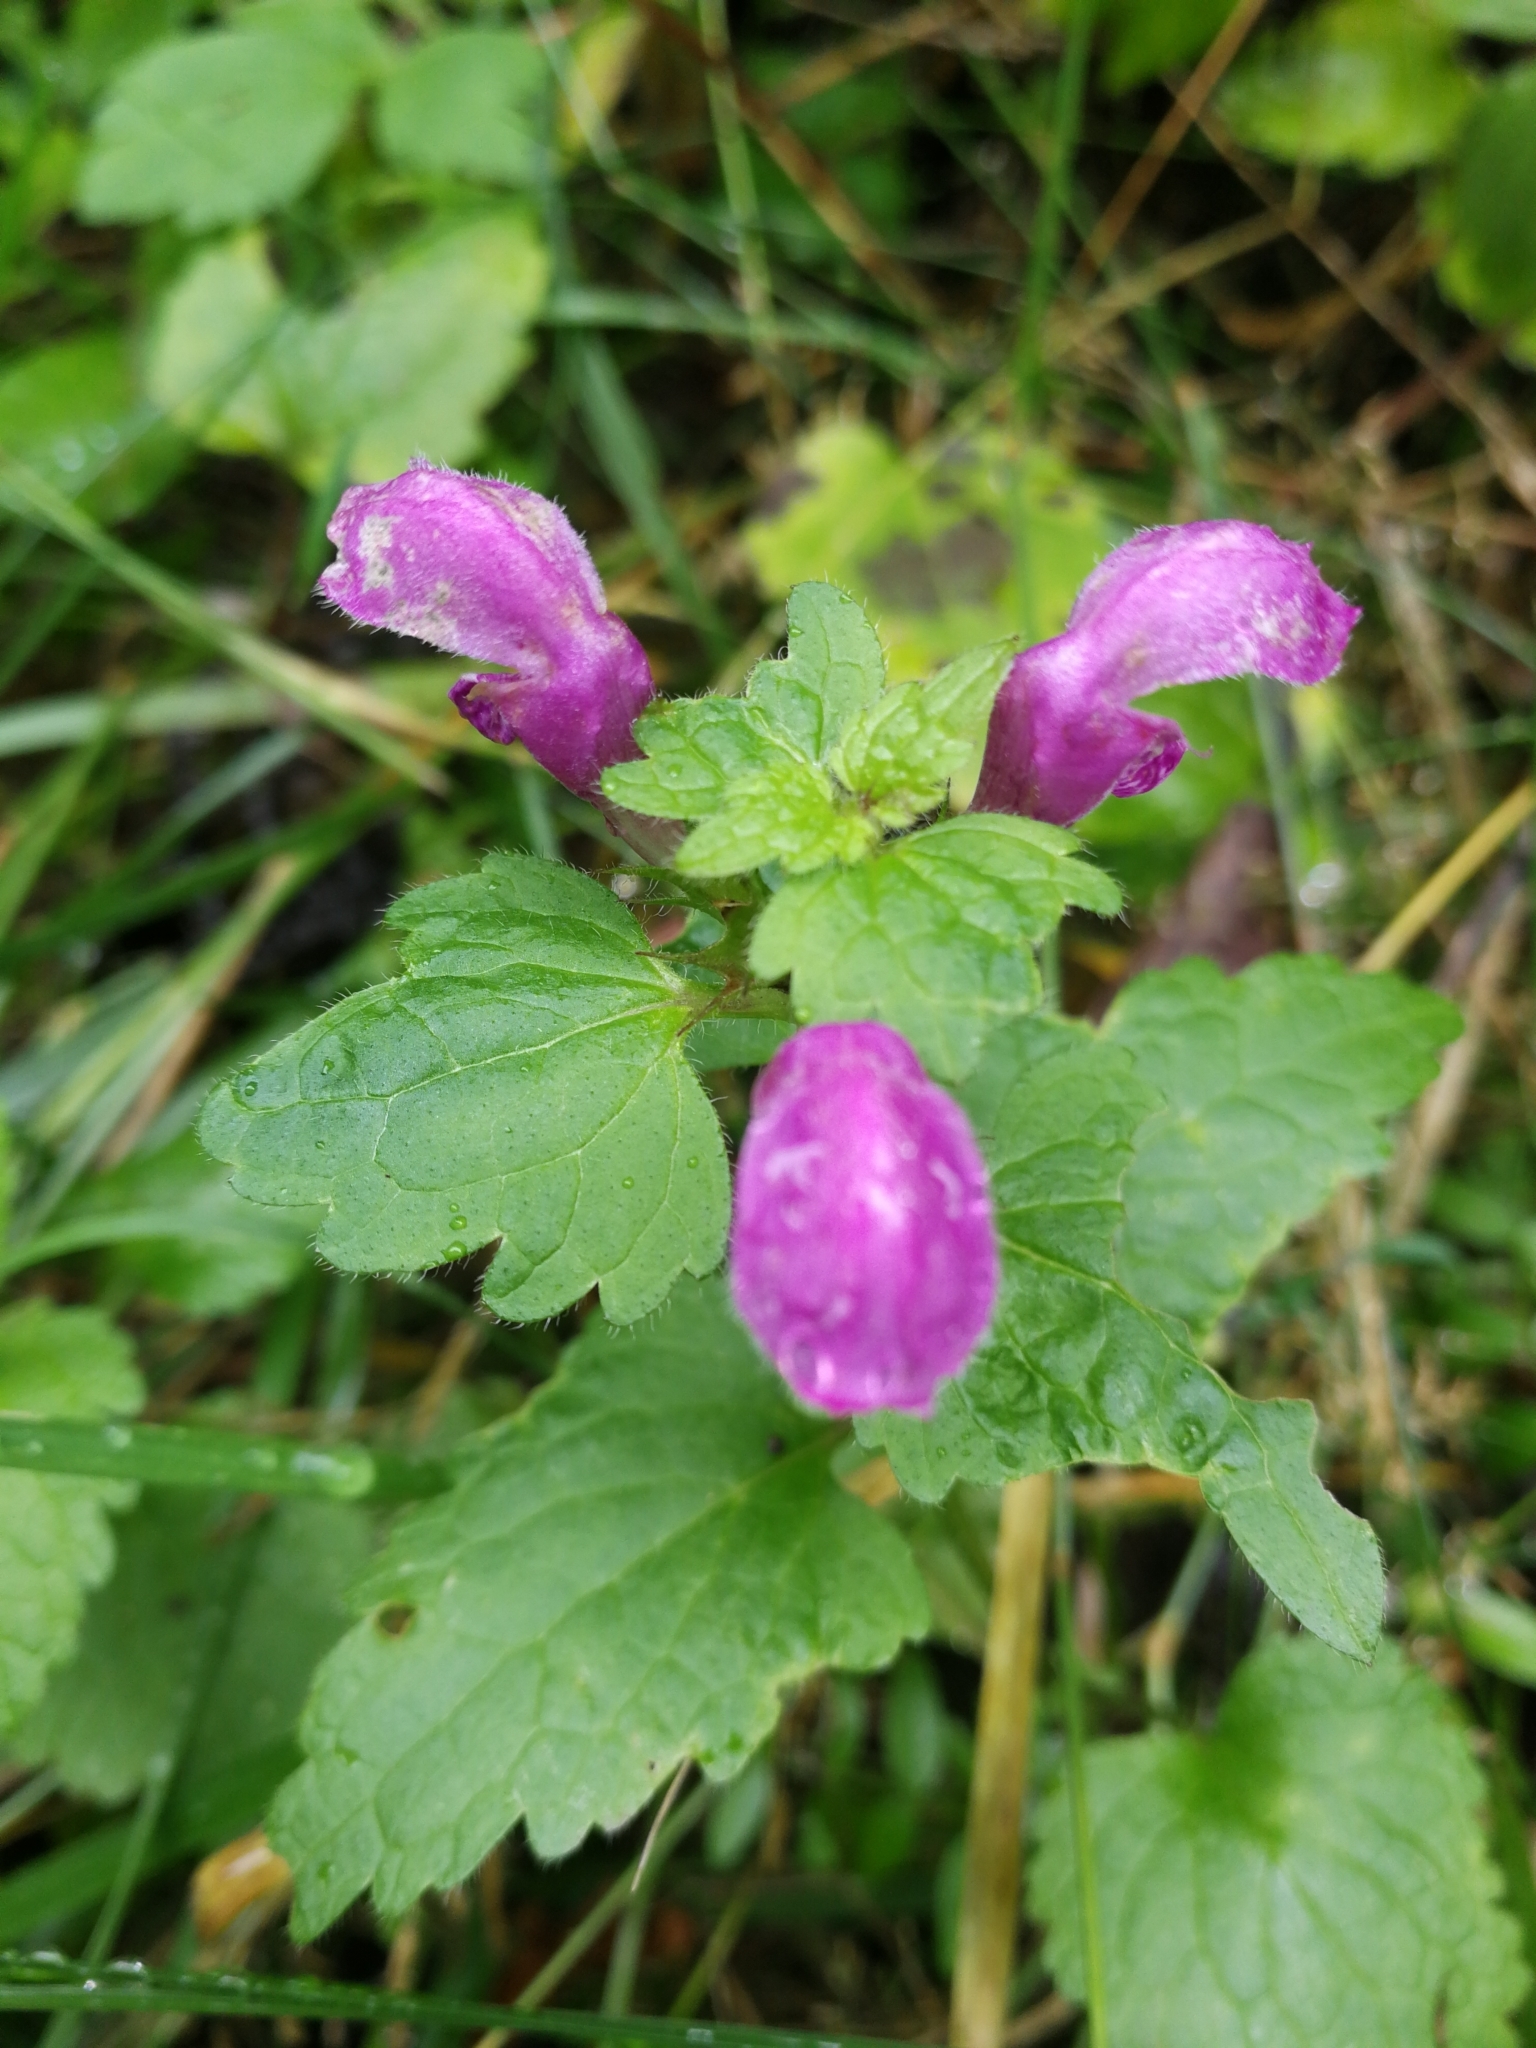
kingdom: Plantae
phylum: Tracheophyta
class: Magnoliopsida
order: Lamiales
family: Lamiaceae
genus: Lamium
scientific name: Lamium maculatum
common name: Spotted dead-nettle
